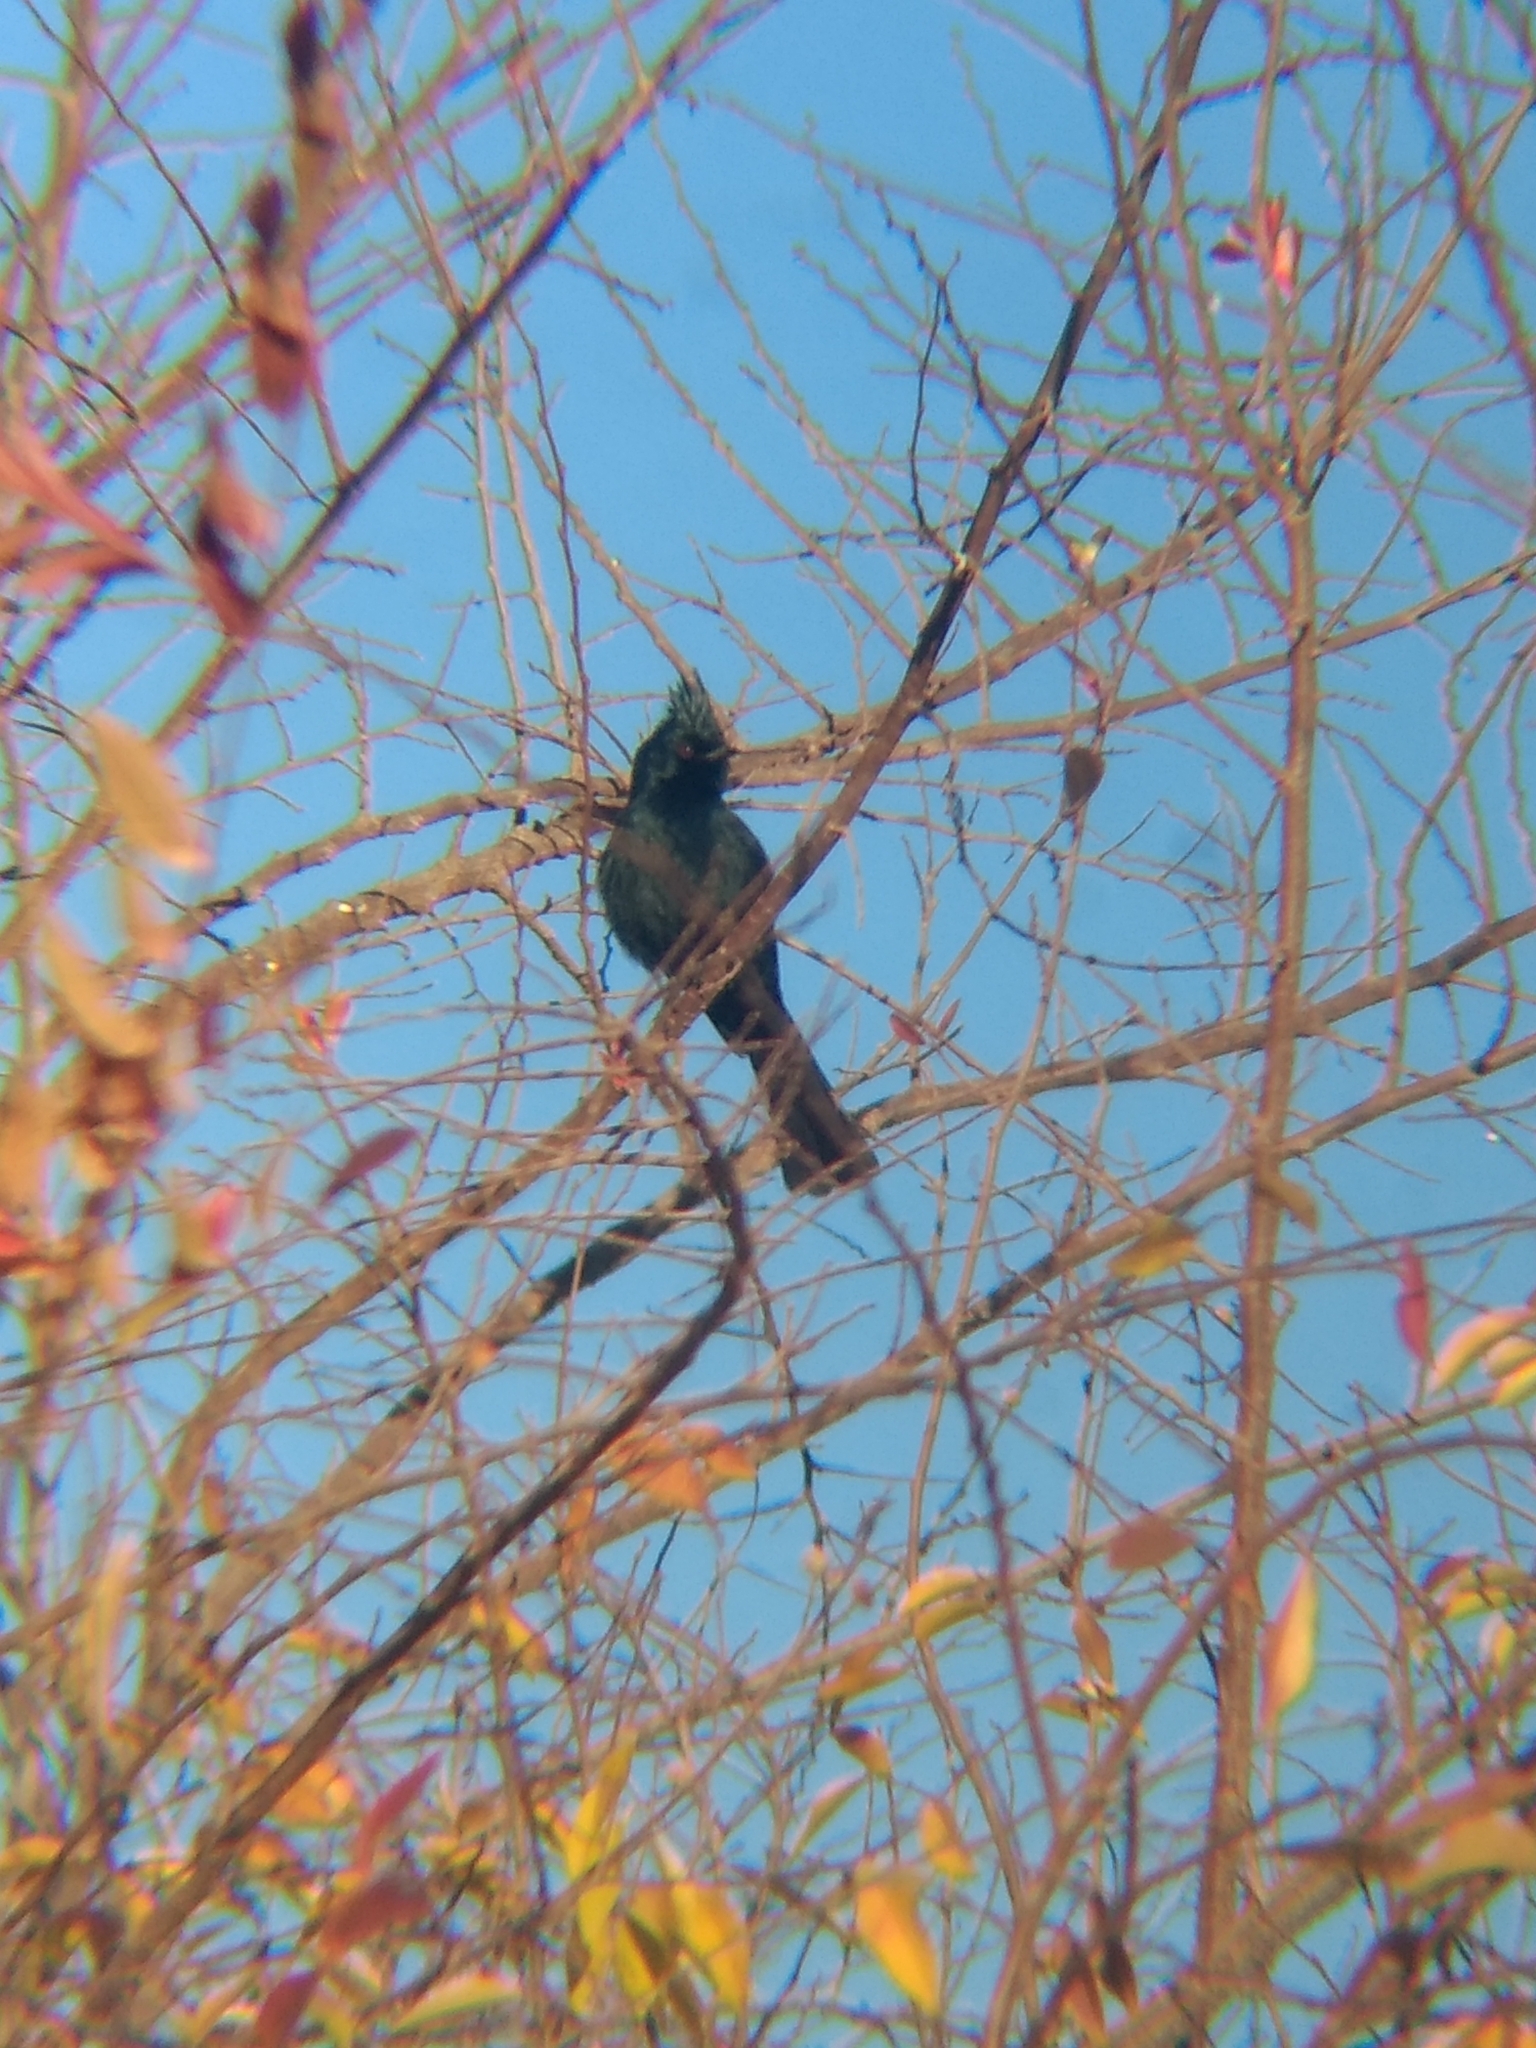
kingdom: Animalia
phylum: Chordata
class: Aves
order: Passeriformes
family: Ptilogonatidae
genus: Phainopepla
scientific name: Phainopepla nitens
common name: Phainopepla
